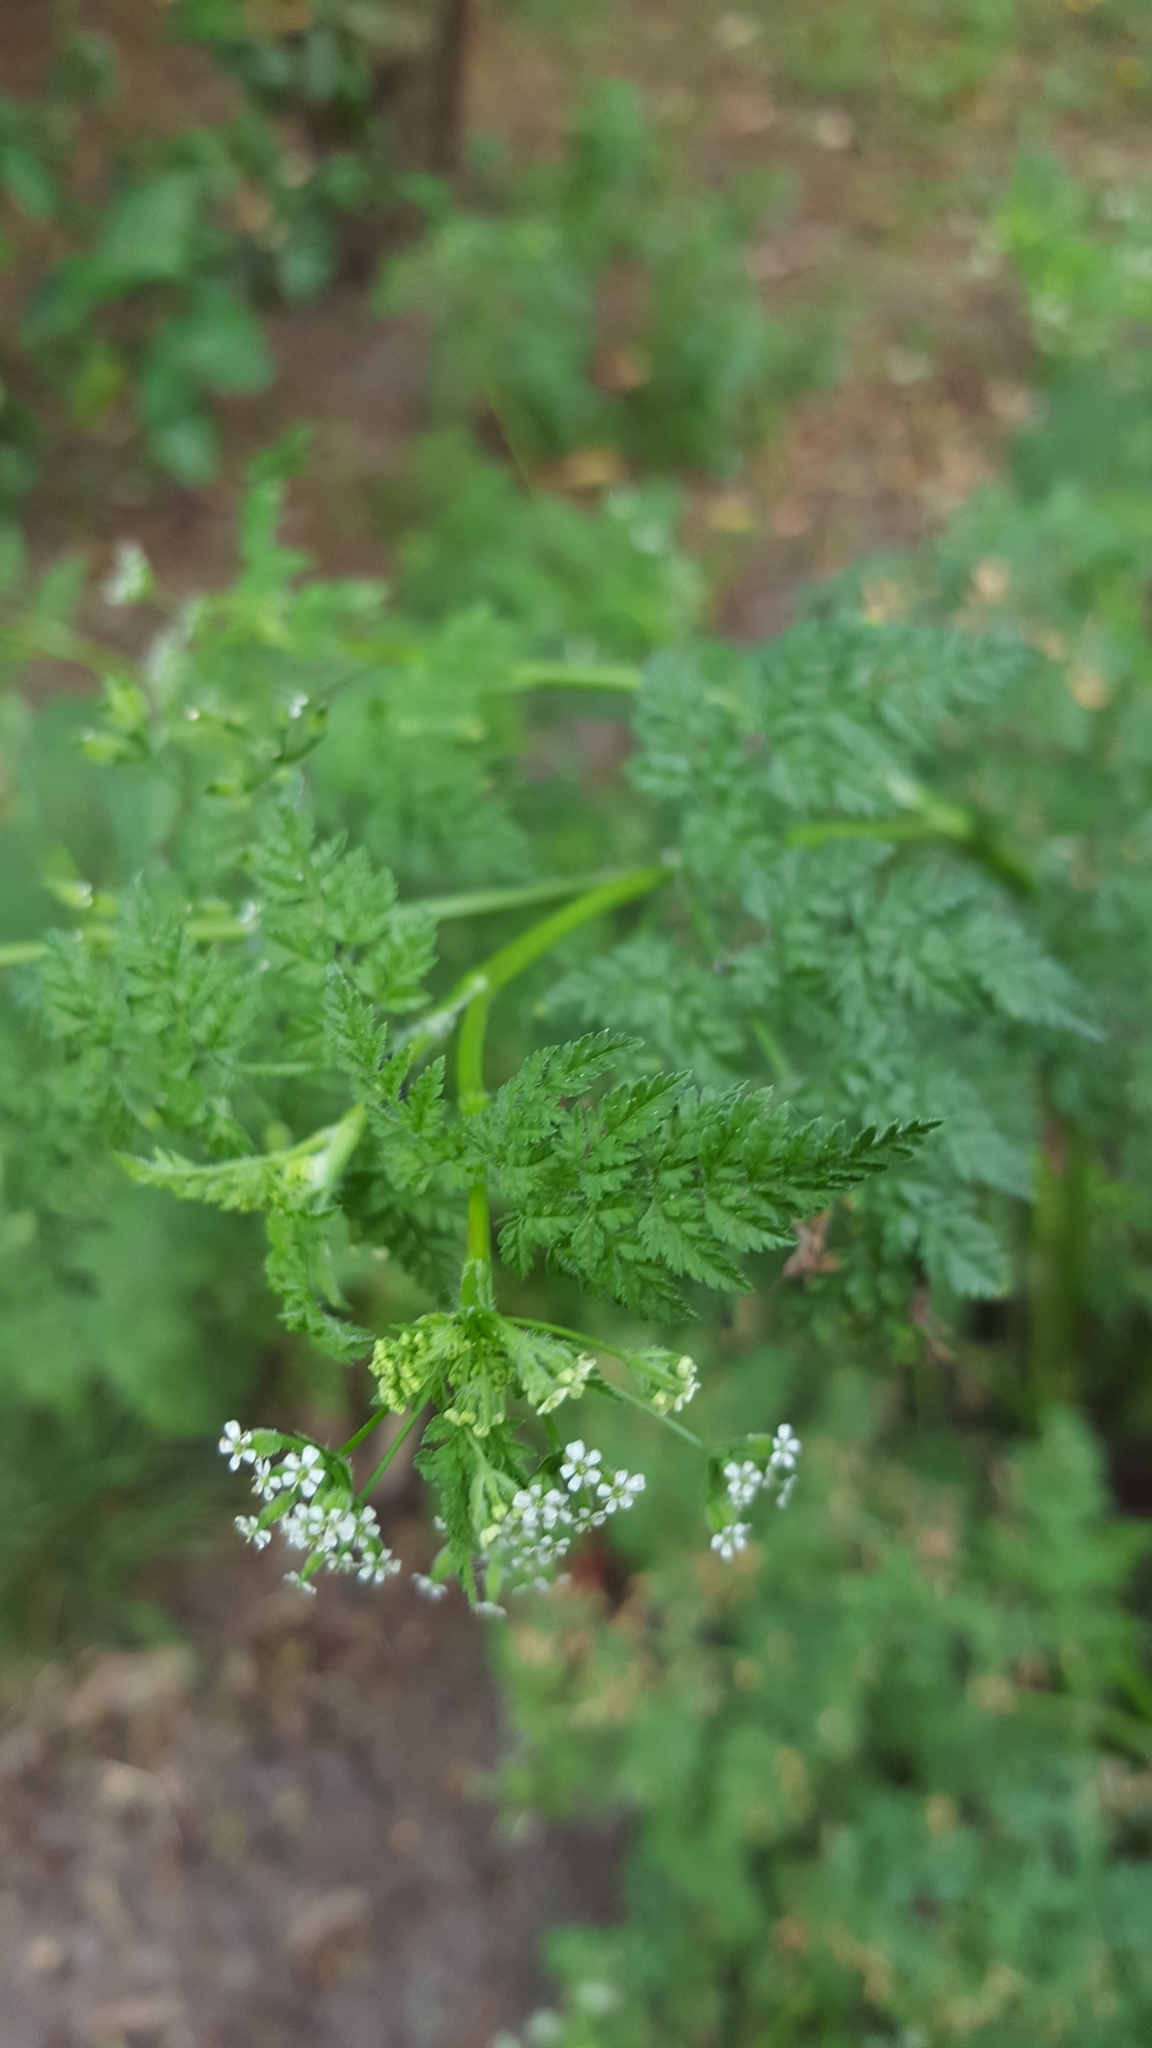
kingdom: Plantae
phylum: Tracheophyta
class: Magnoliopsida
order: Apiales
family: Apiaceae
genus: Anthriscus
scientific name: Anthriscus caucalis
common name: Bur chervil
